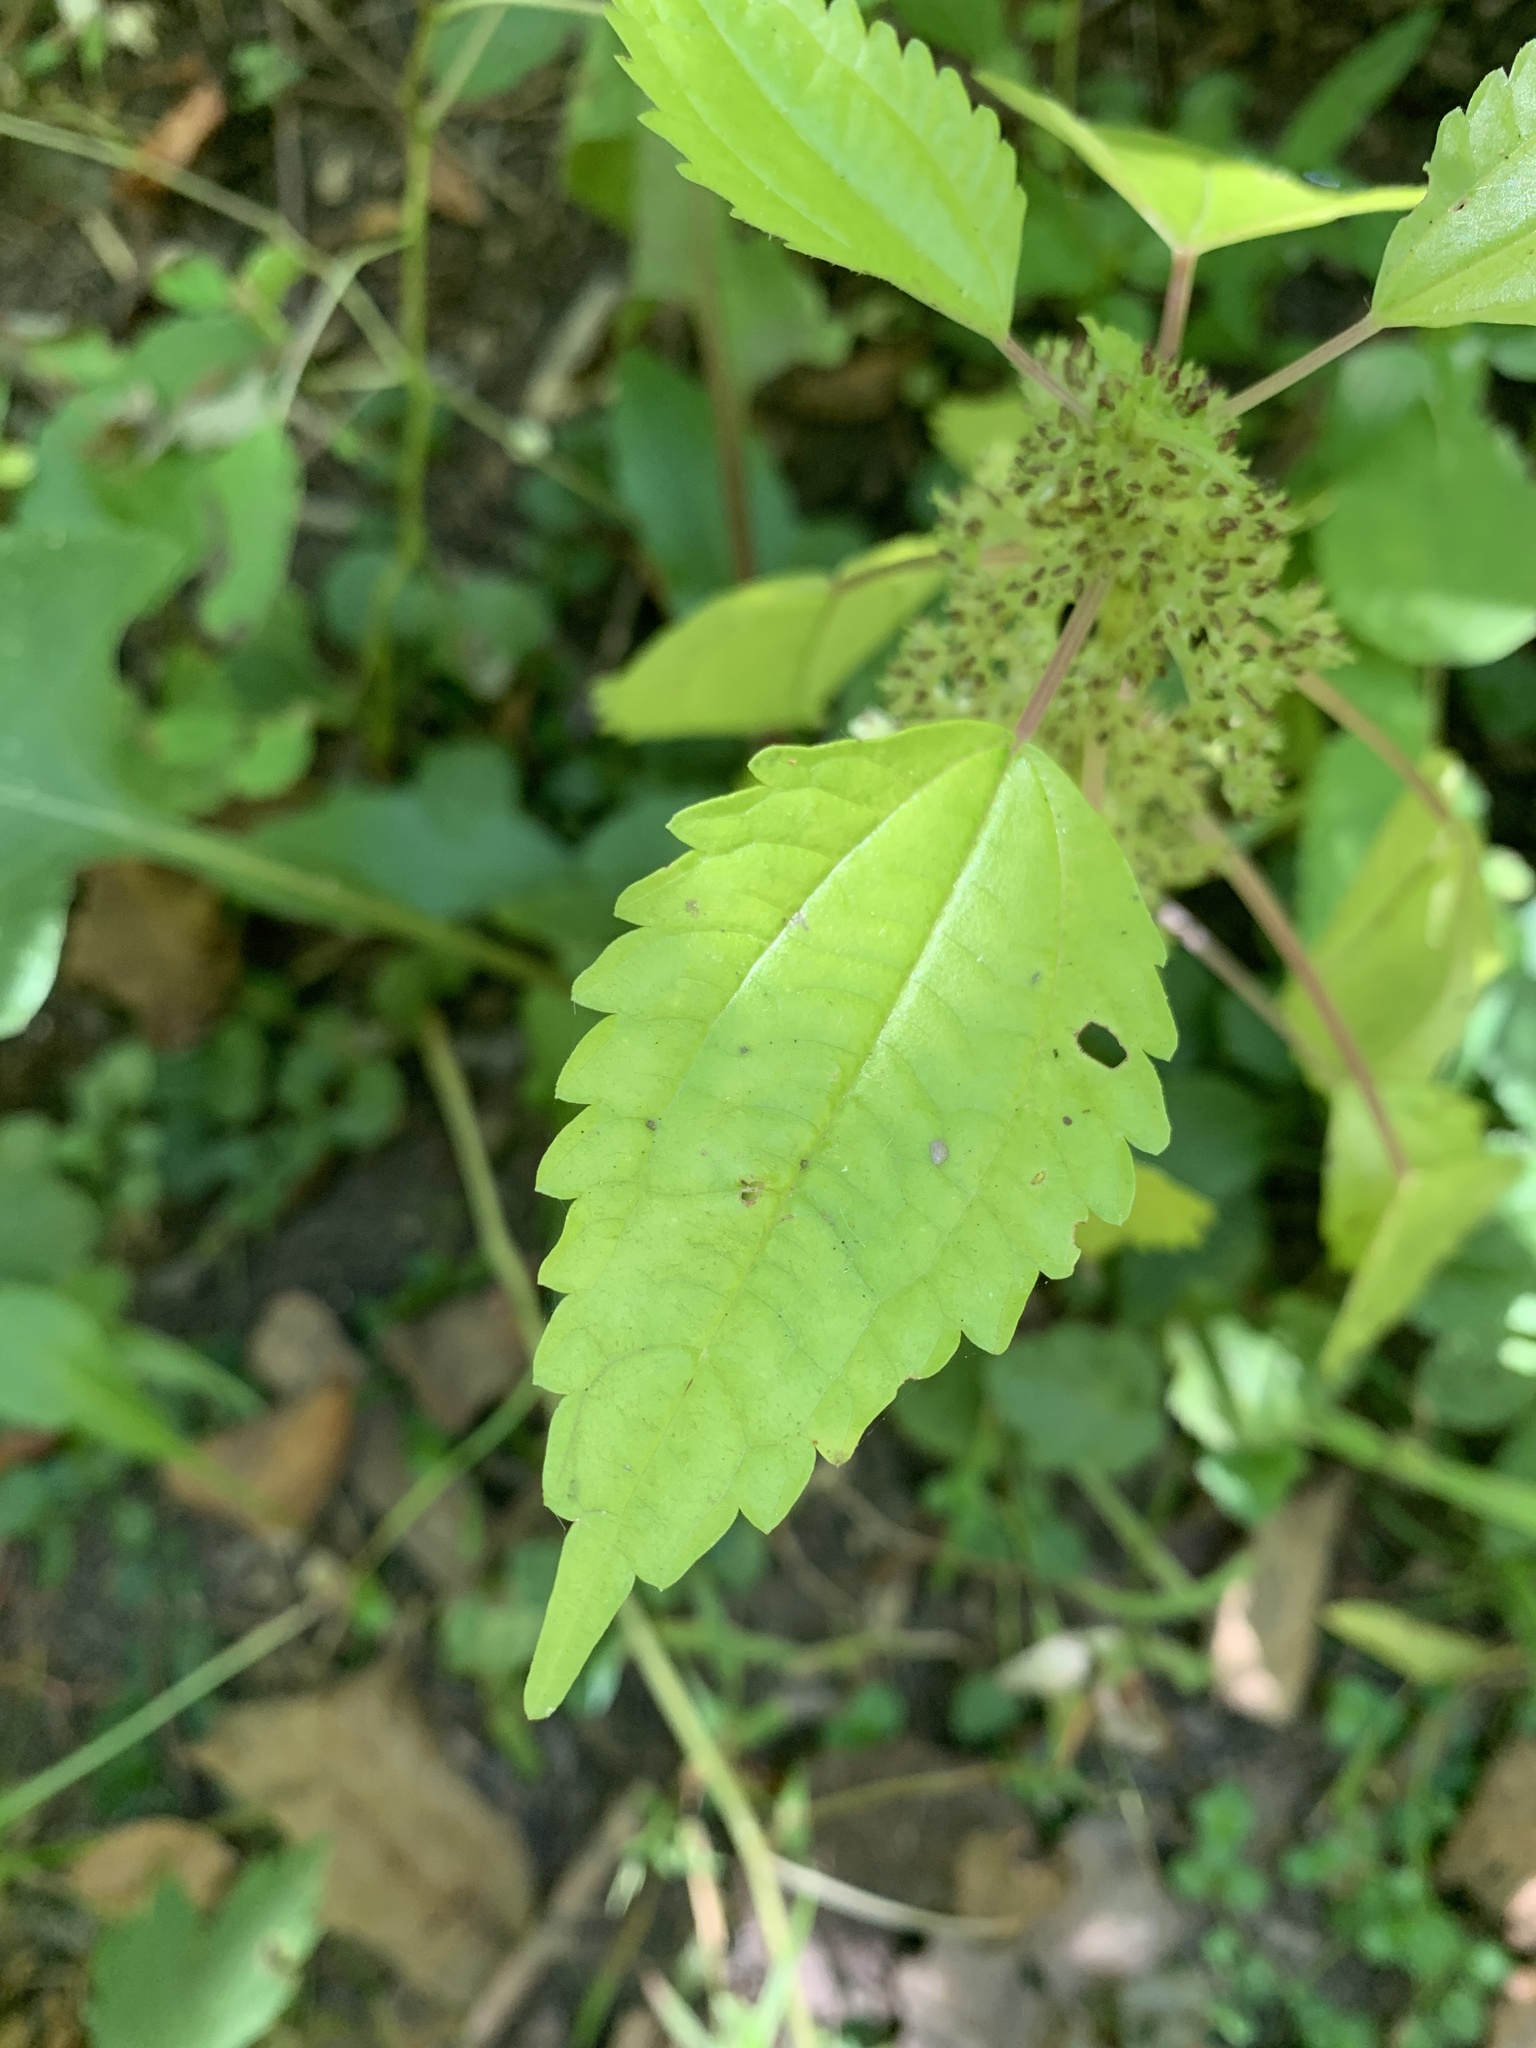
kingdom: Plantae
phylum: Tracheophyta
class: Magnoliopsida
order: Rosales
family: Urticaceae
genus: Pilea
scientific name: Pilea pumila
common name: Clearweed
